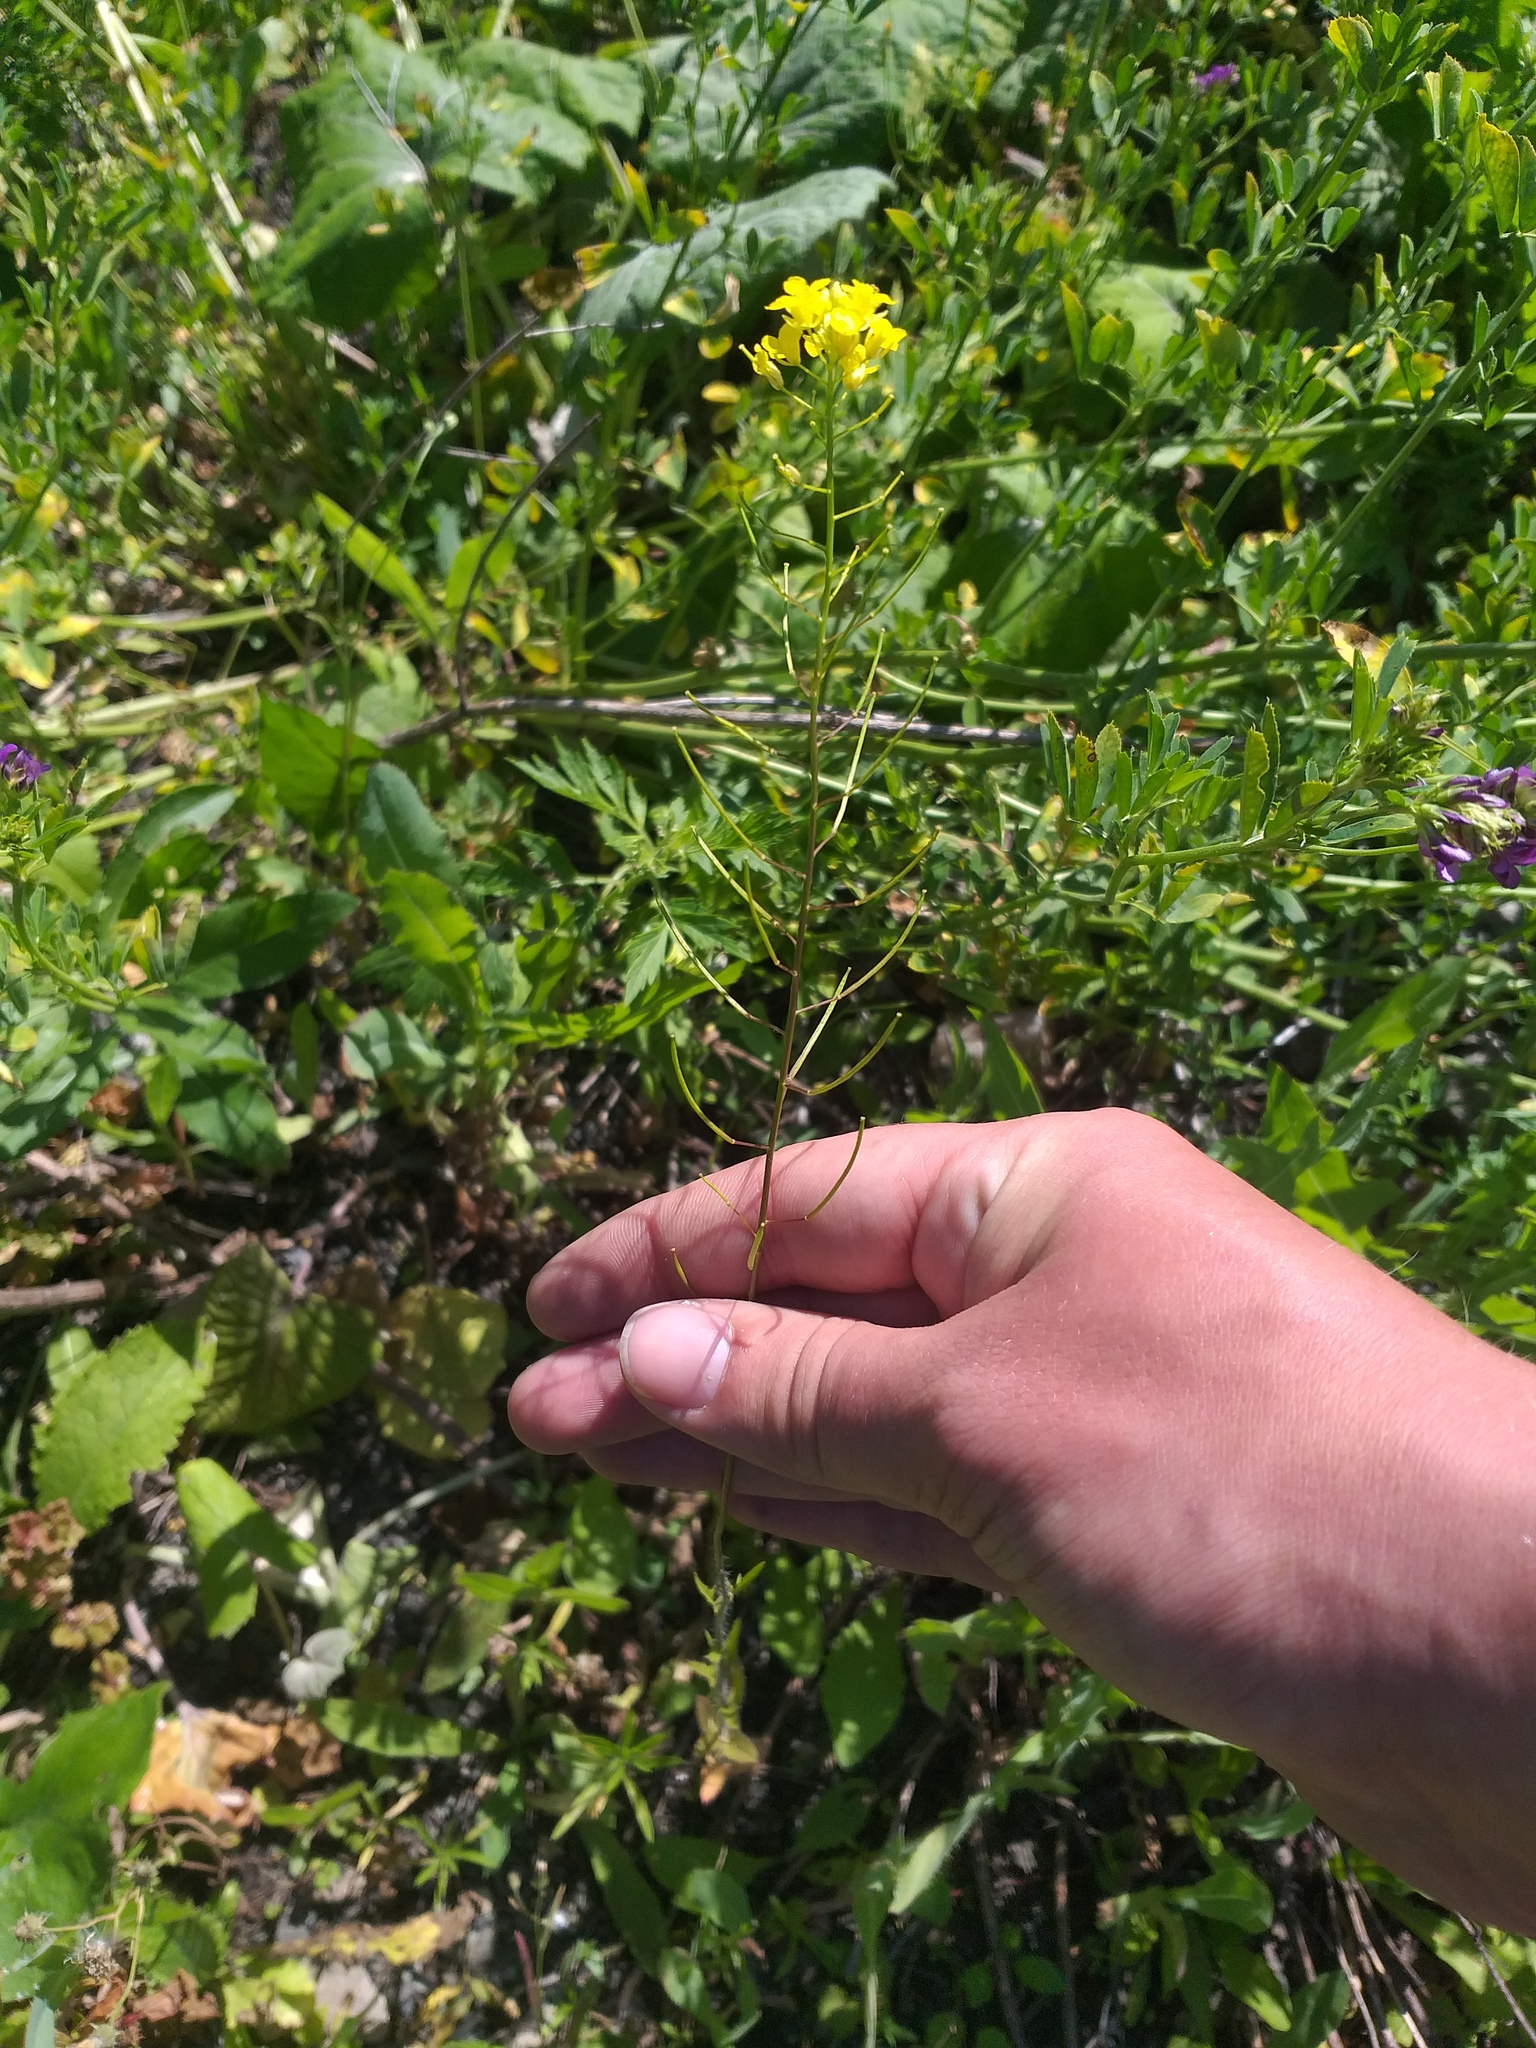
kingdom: Plantae
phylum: Tracheophyta
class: Magnoliopsida
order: Brassicales
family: Brassicaceae
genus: Sisymbrium
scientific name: Sisymbrium loeselii
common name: False london-rocket
